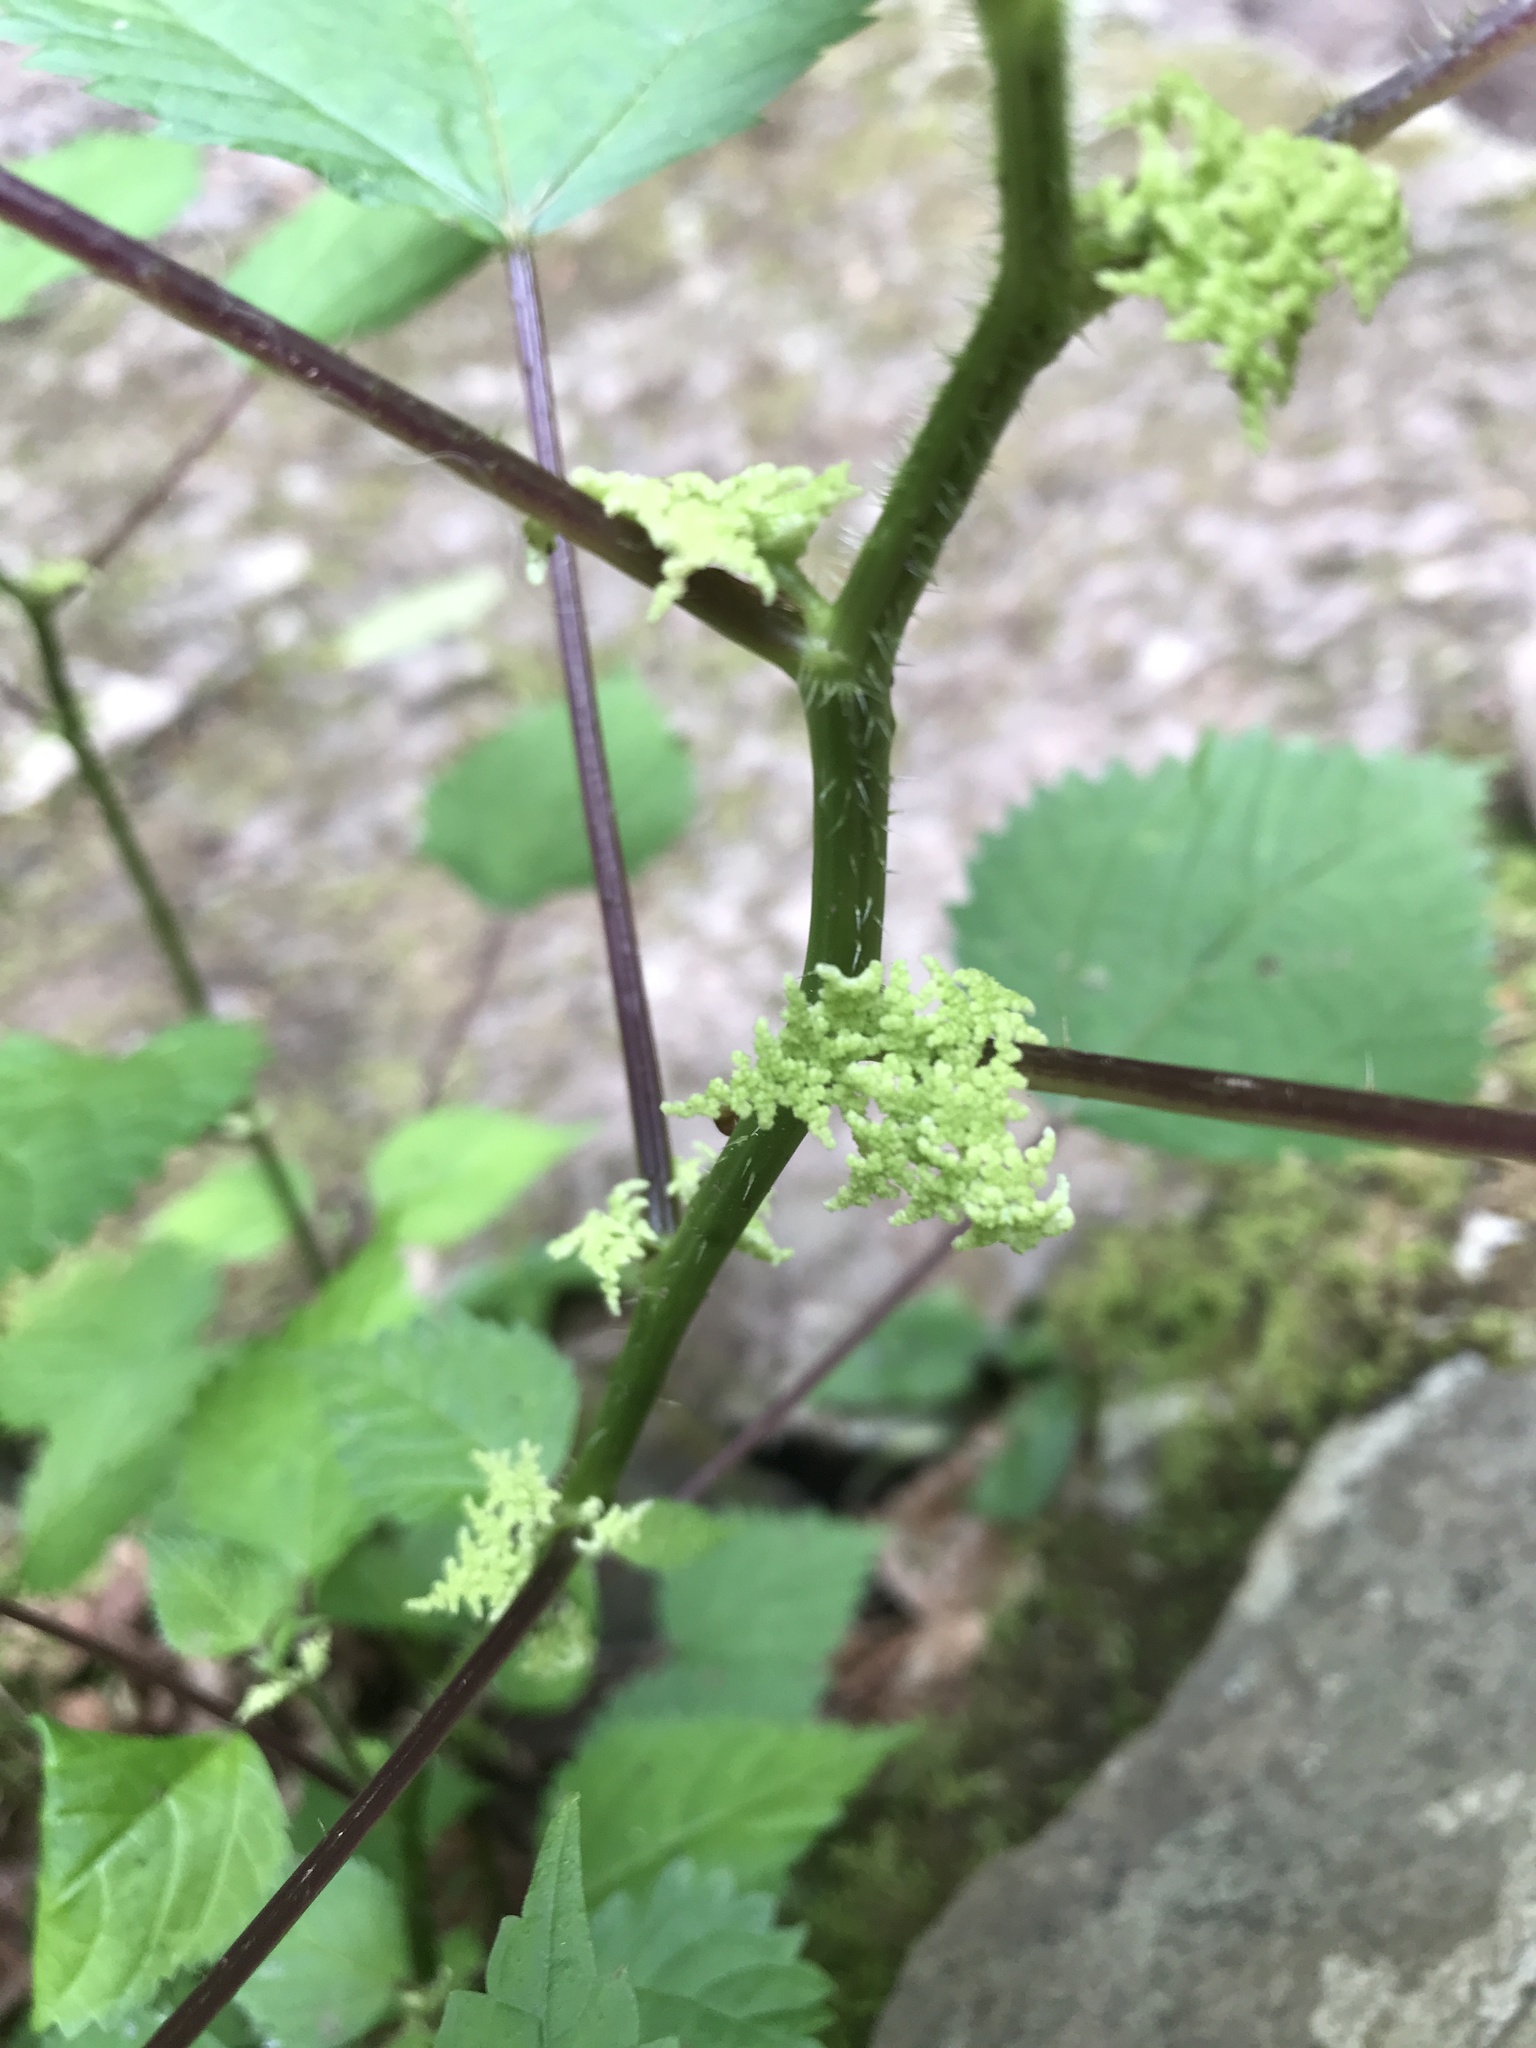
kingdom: Plantae
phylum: Tracheophyta
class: Magnoliopsida
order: Rosales
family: Urticaceae
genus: Laportea
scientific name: Laportea canadensis
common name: Canada nettle
